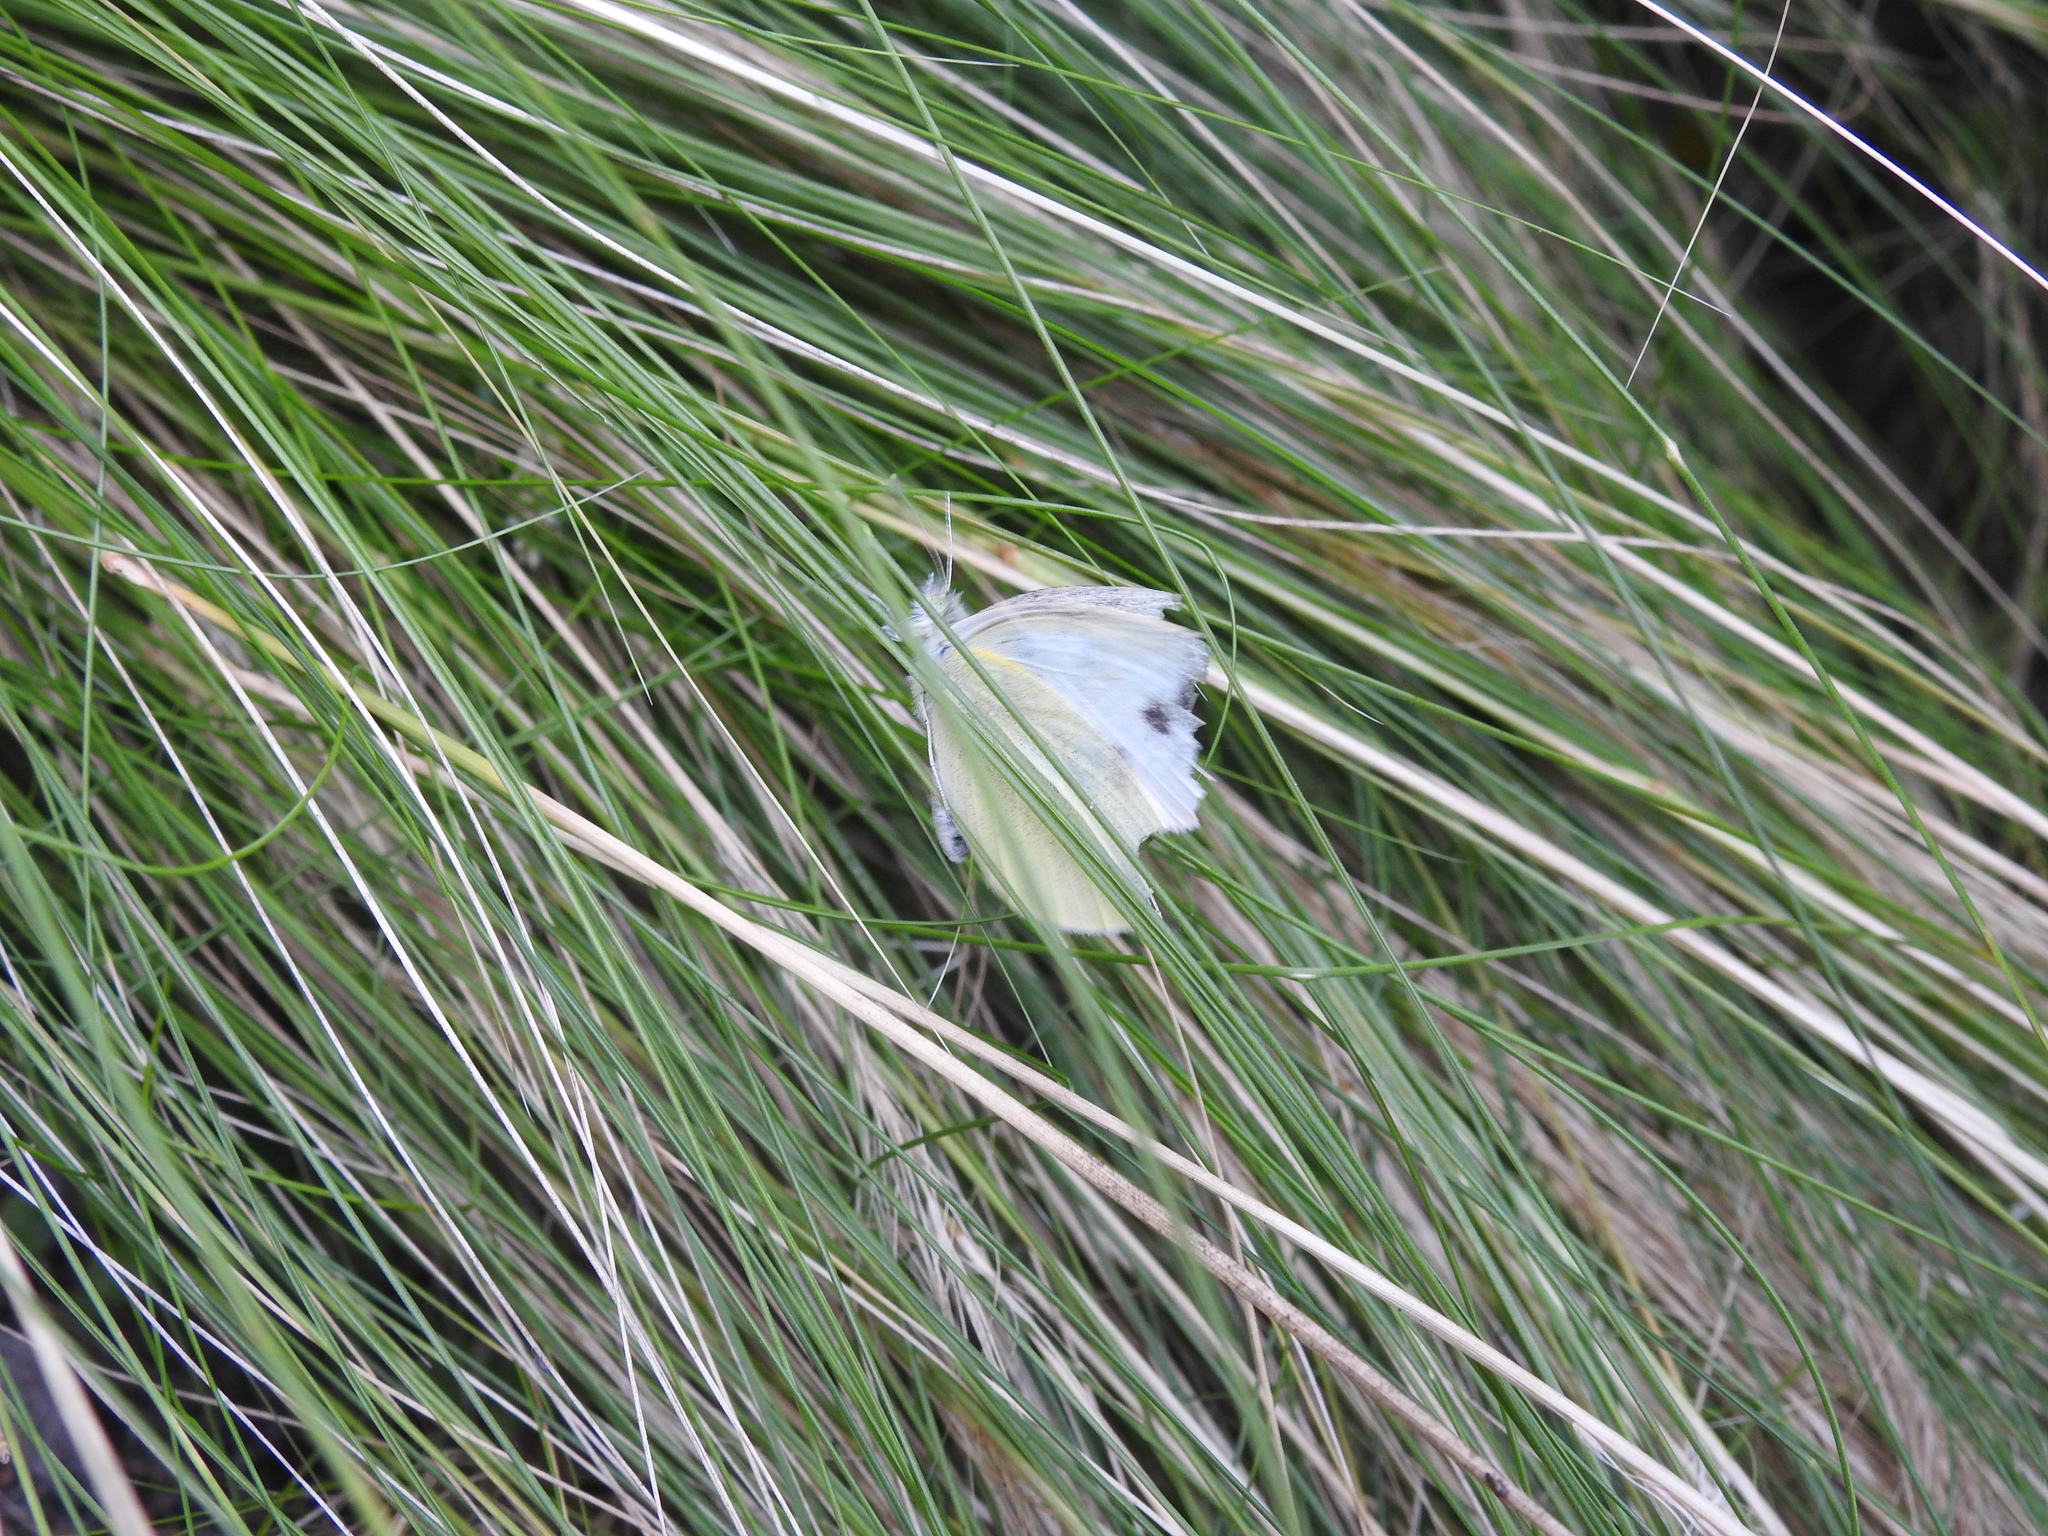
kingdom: Animalia
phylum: Arthropoda
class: Insecta
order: Lepidoptera
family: Pieridae
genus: Pieris
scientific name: Pieris rapae
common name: Small white
